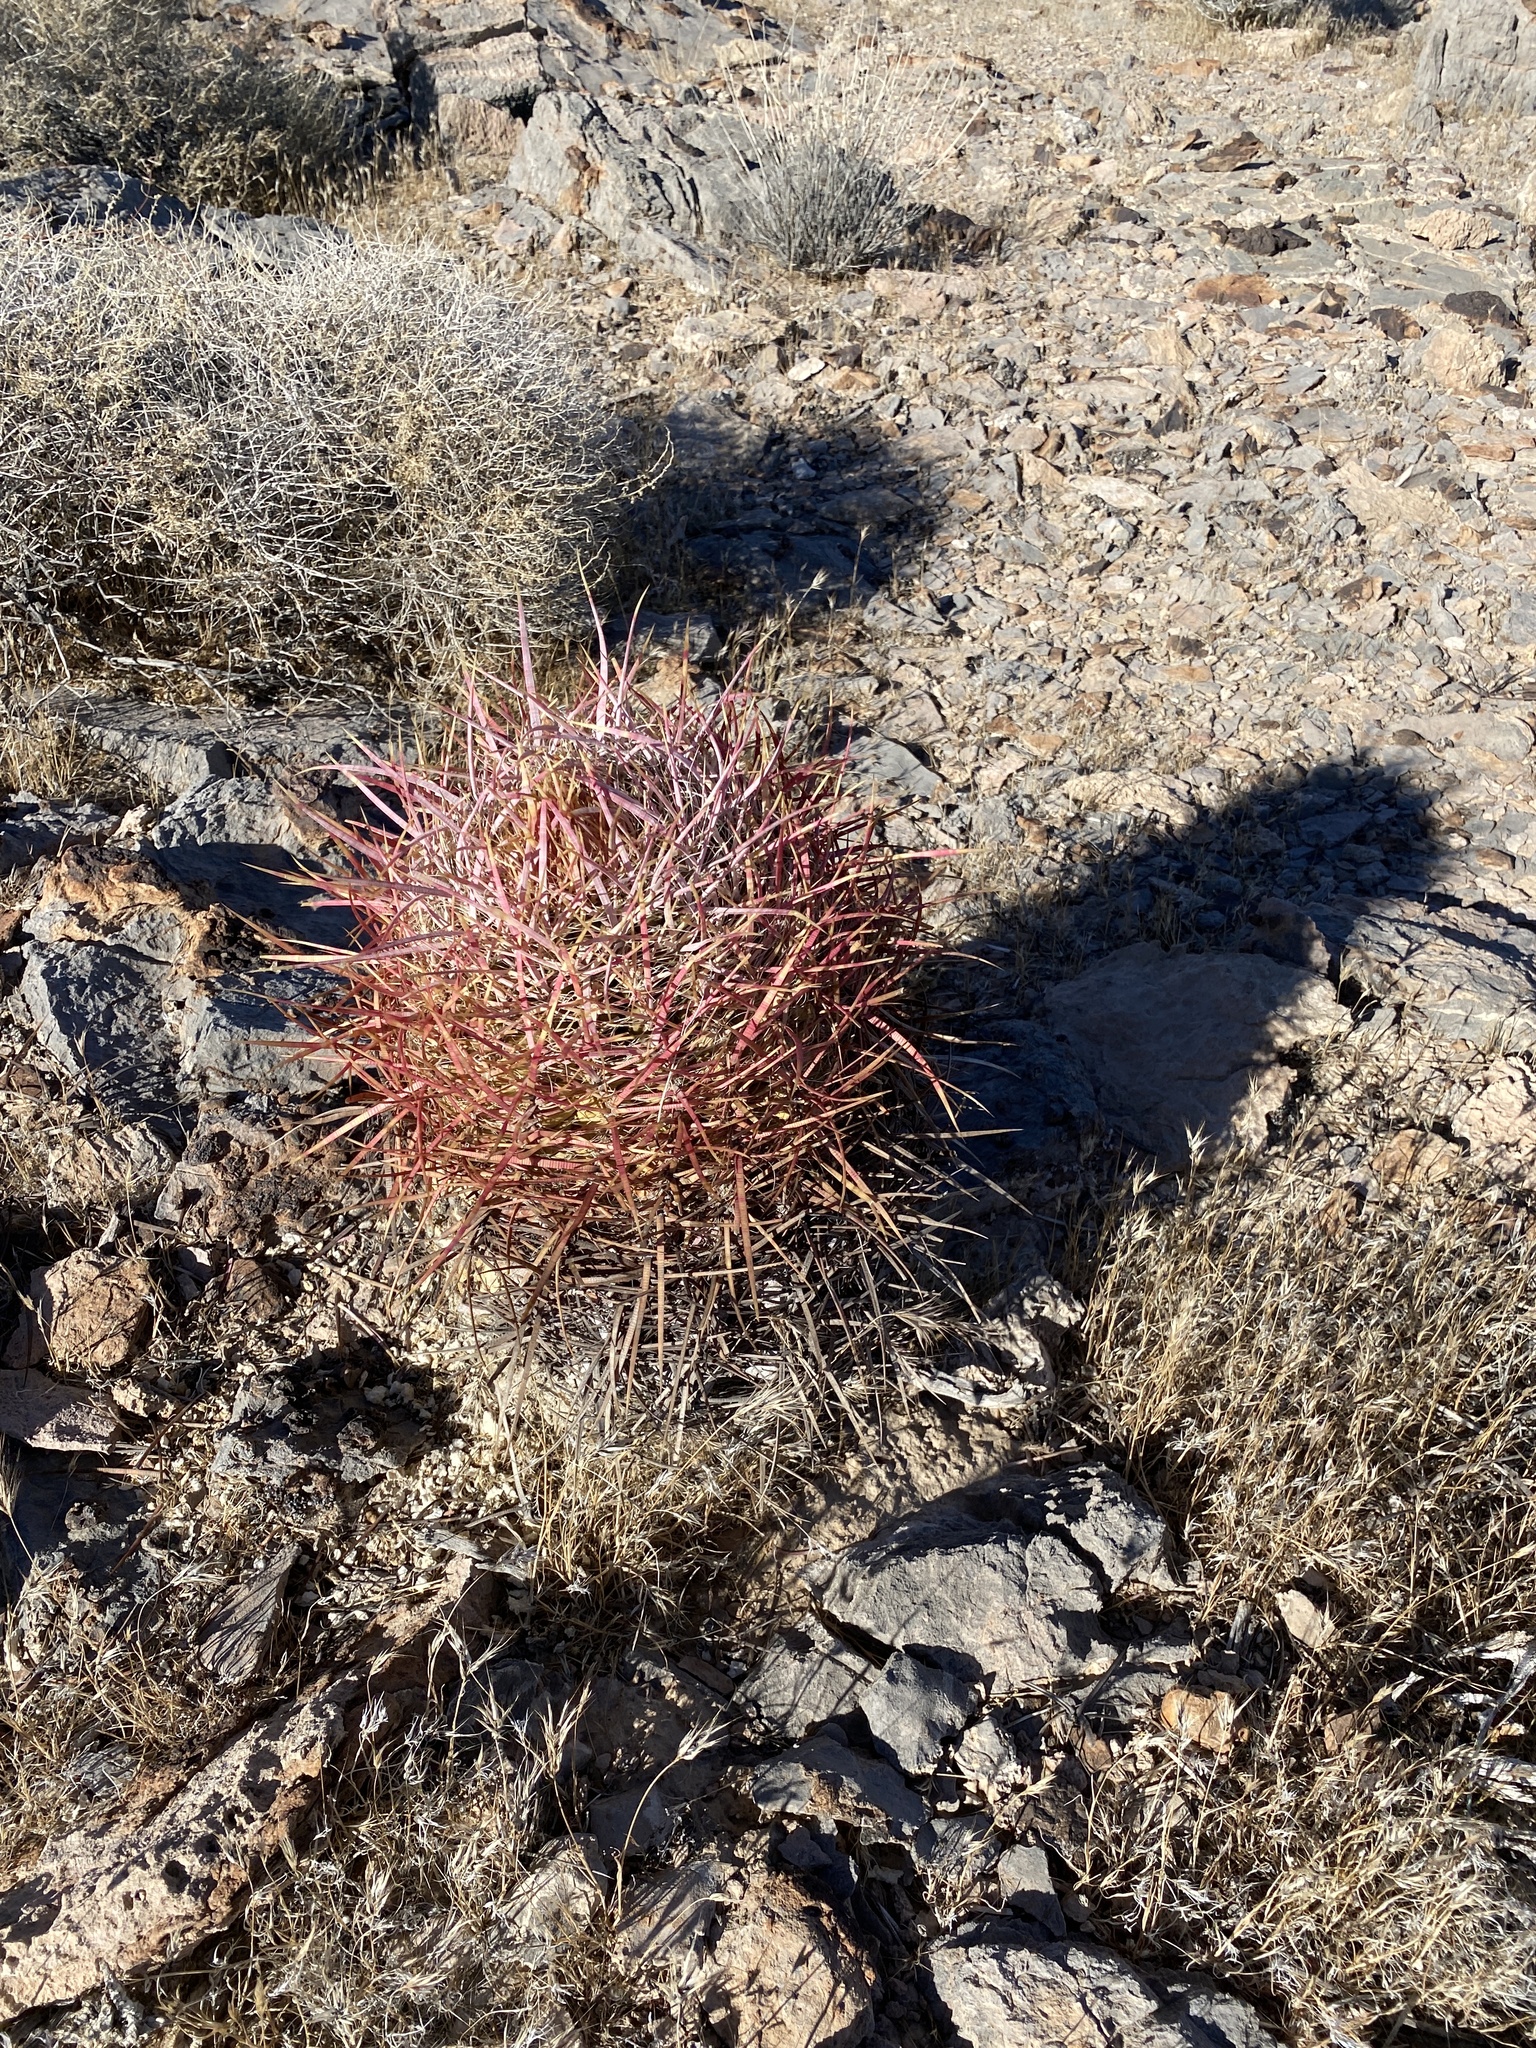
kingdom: Plantae
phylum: Tracheophyta
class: Magnoliopsida
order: Caryophyllales
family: Cactaceae
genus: Ferocactus
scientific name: Ferocactus cylindraceus
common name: California barrel cactus
